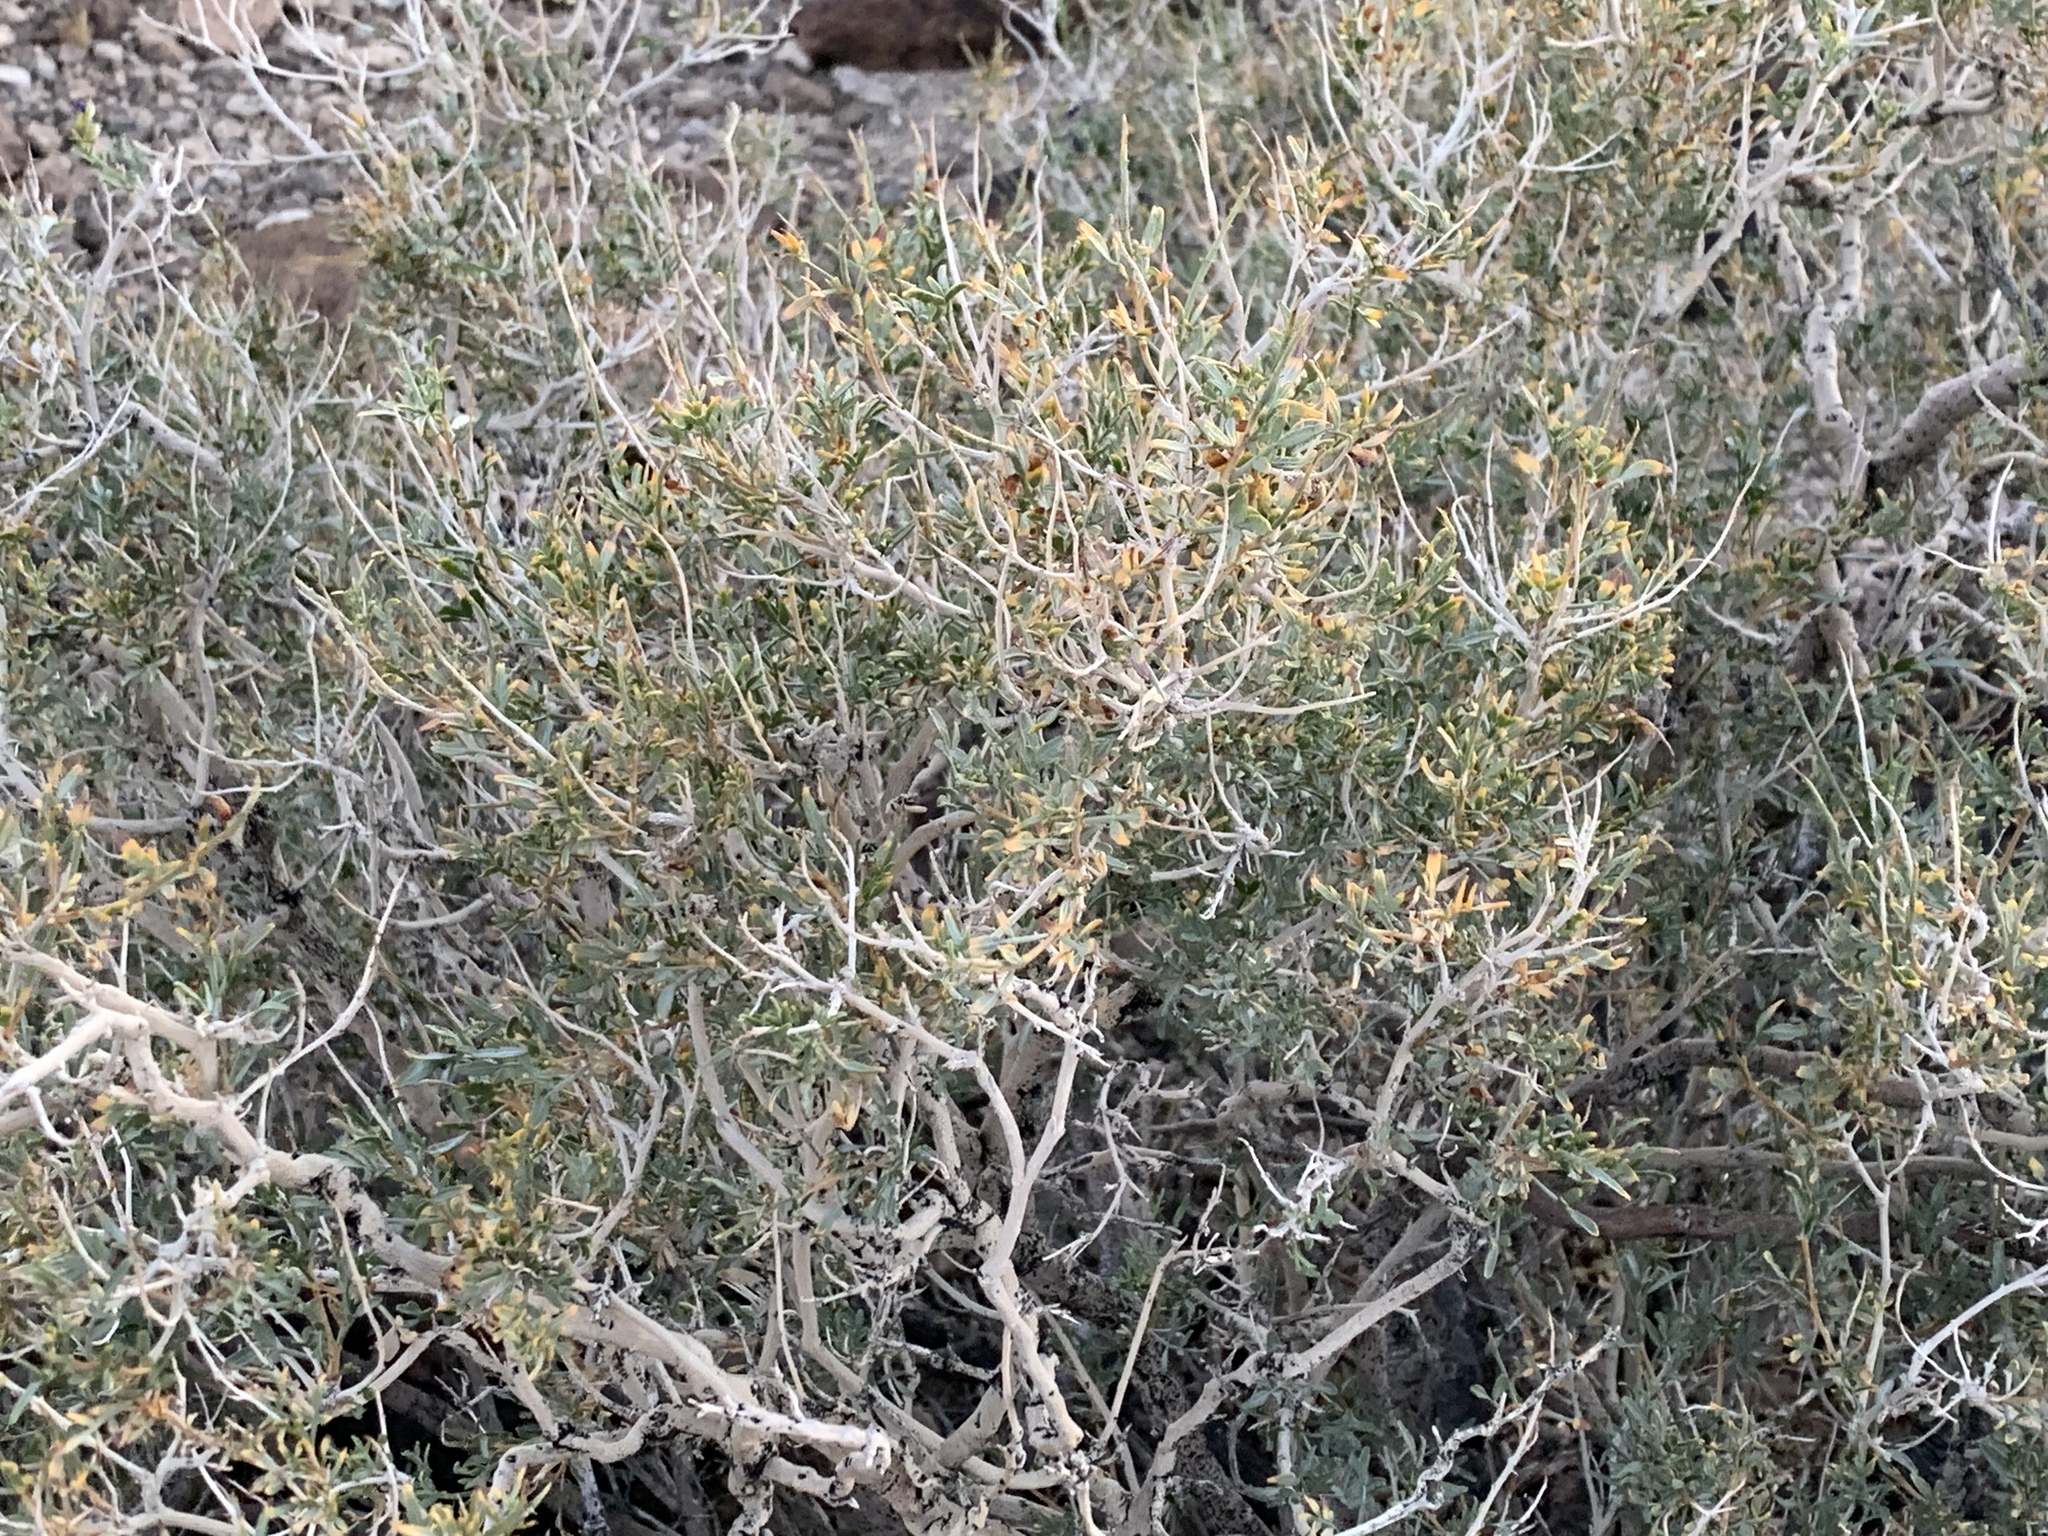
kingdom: Plantae
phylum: Tracheophyta
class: Magnoliopsida
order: Fabales
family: Fabaceae
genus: Psorothamnus
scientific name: Psorothamnus arborescens
